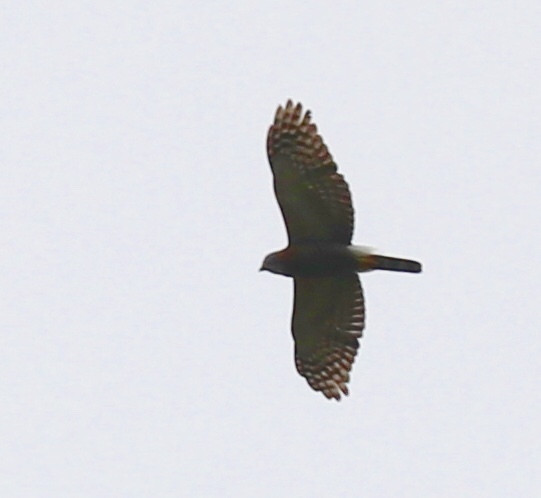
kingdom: Animalia
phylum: Chordata
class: Aves
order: Accipitriformes
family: Accipitridae
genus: Harpagus
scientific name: Harpagus bidentatus
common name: Double-toothed kite
